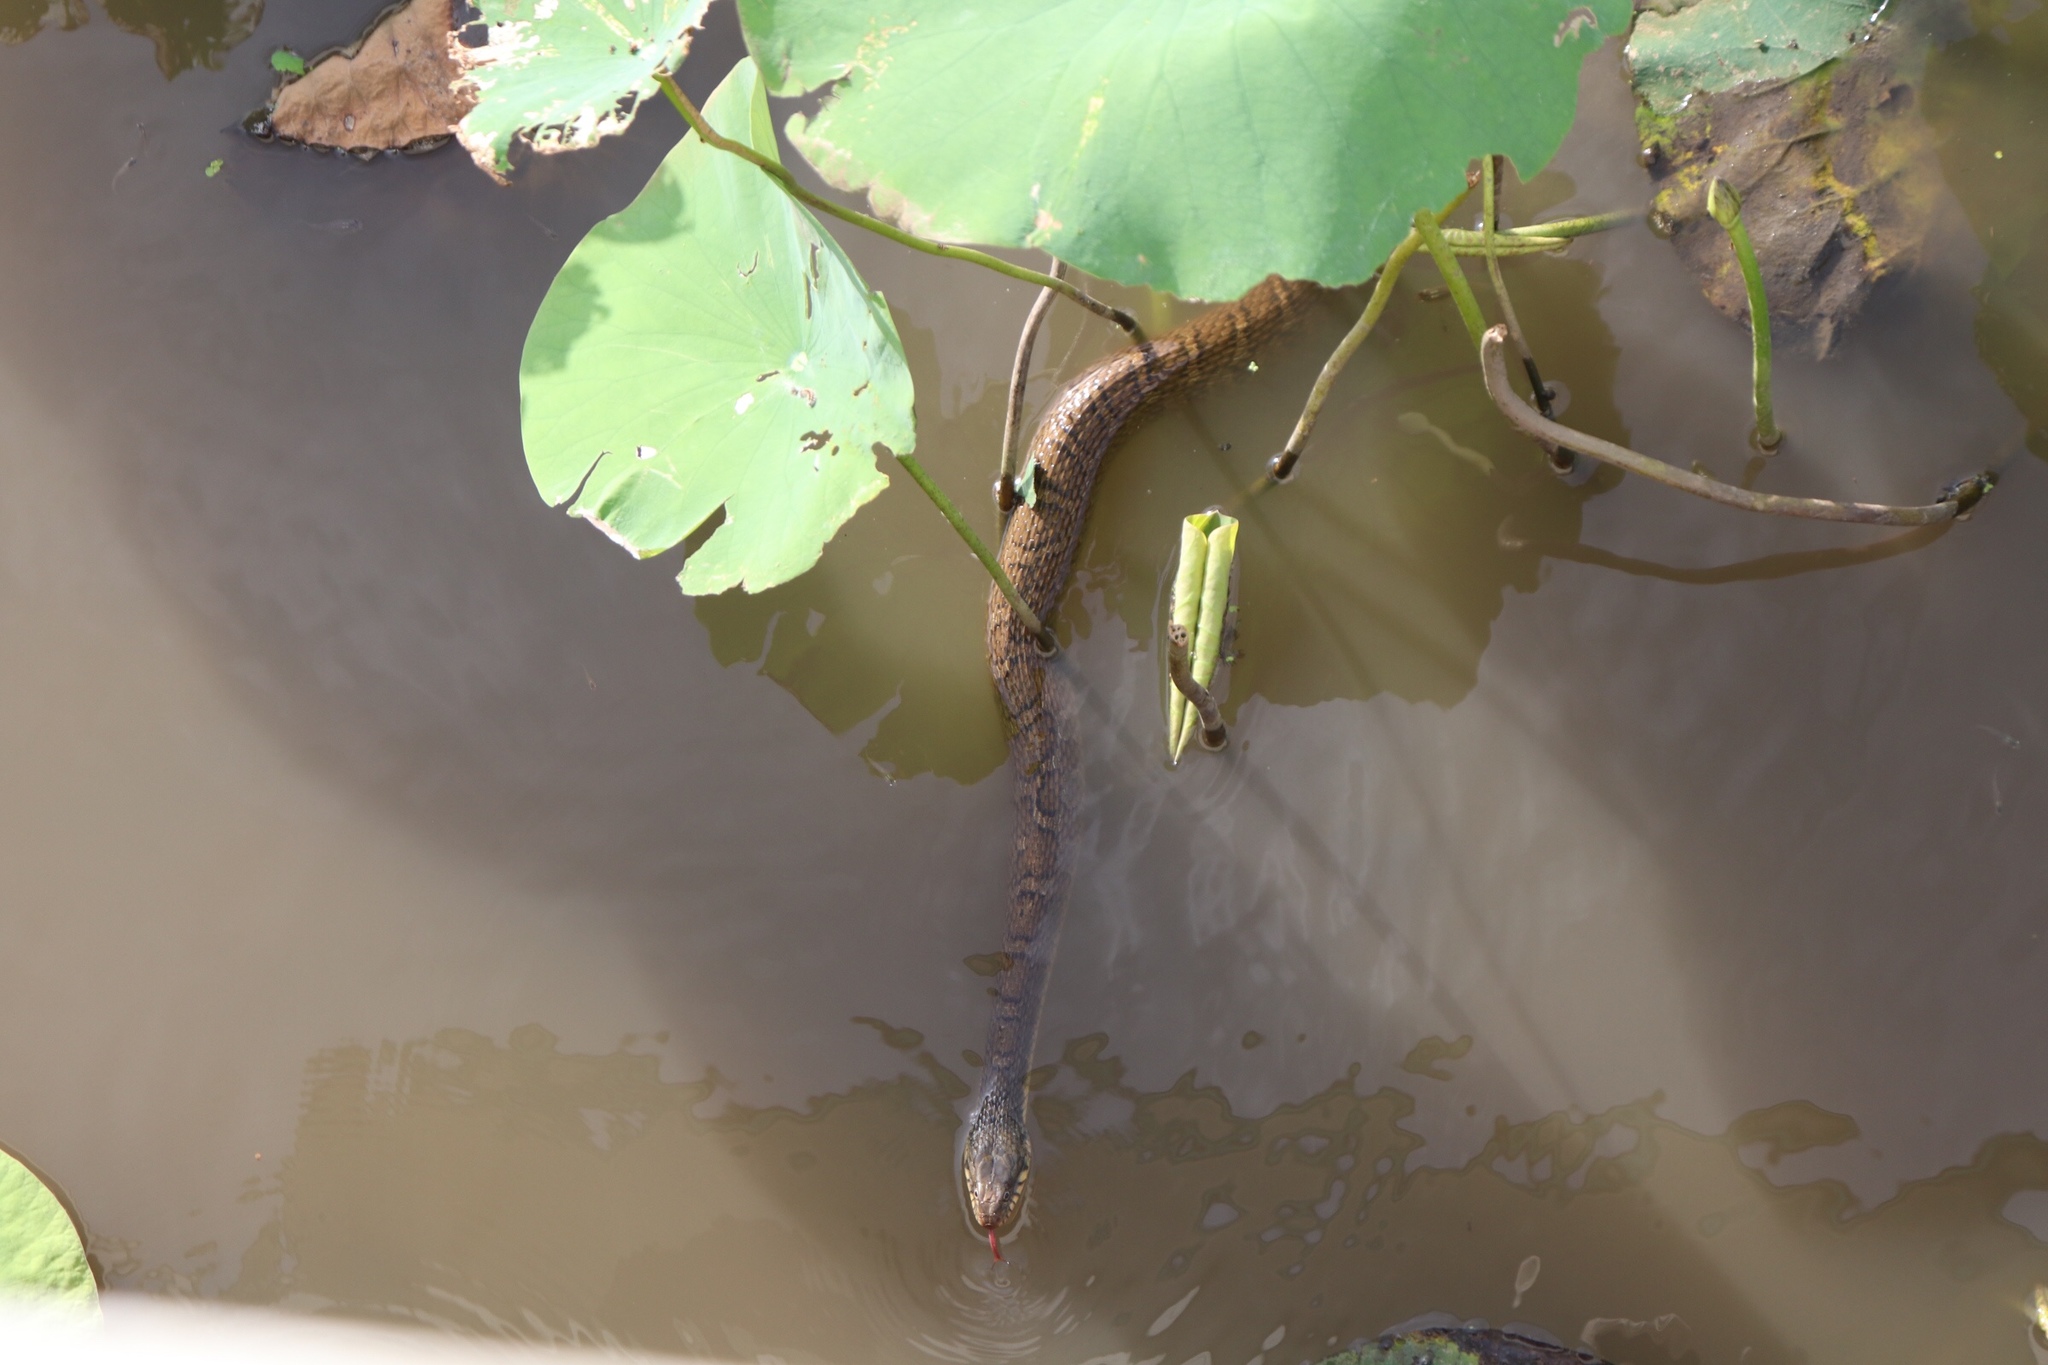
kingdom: Animalia
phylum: Chordata
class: Squamata
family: Colubridae
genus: Nerodia
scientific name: Nerodia erythrogaster
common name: Plainbelly water snake
